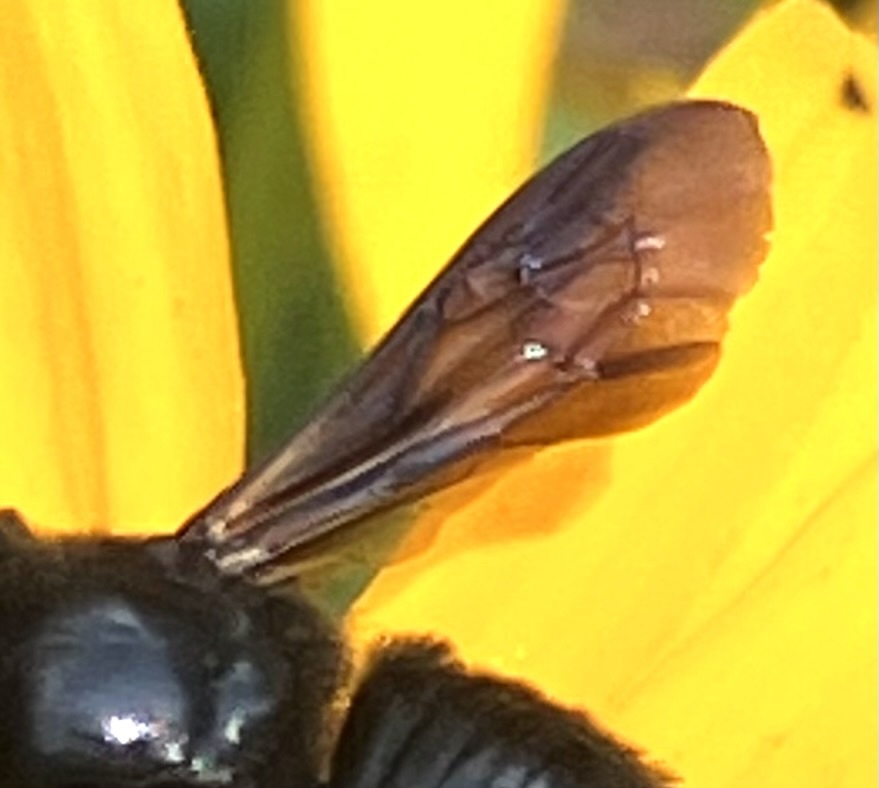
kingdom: Animalia
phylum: Arthropoda
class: Insecta
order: Hymenoptera
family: Megachilidae
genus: Megachile
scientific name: Megachile xylocopoides
